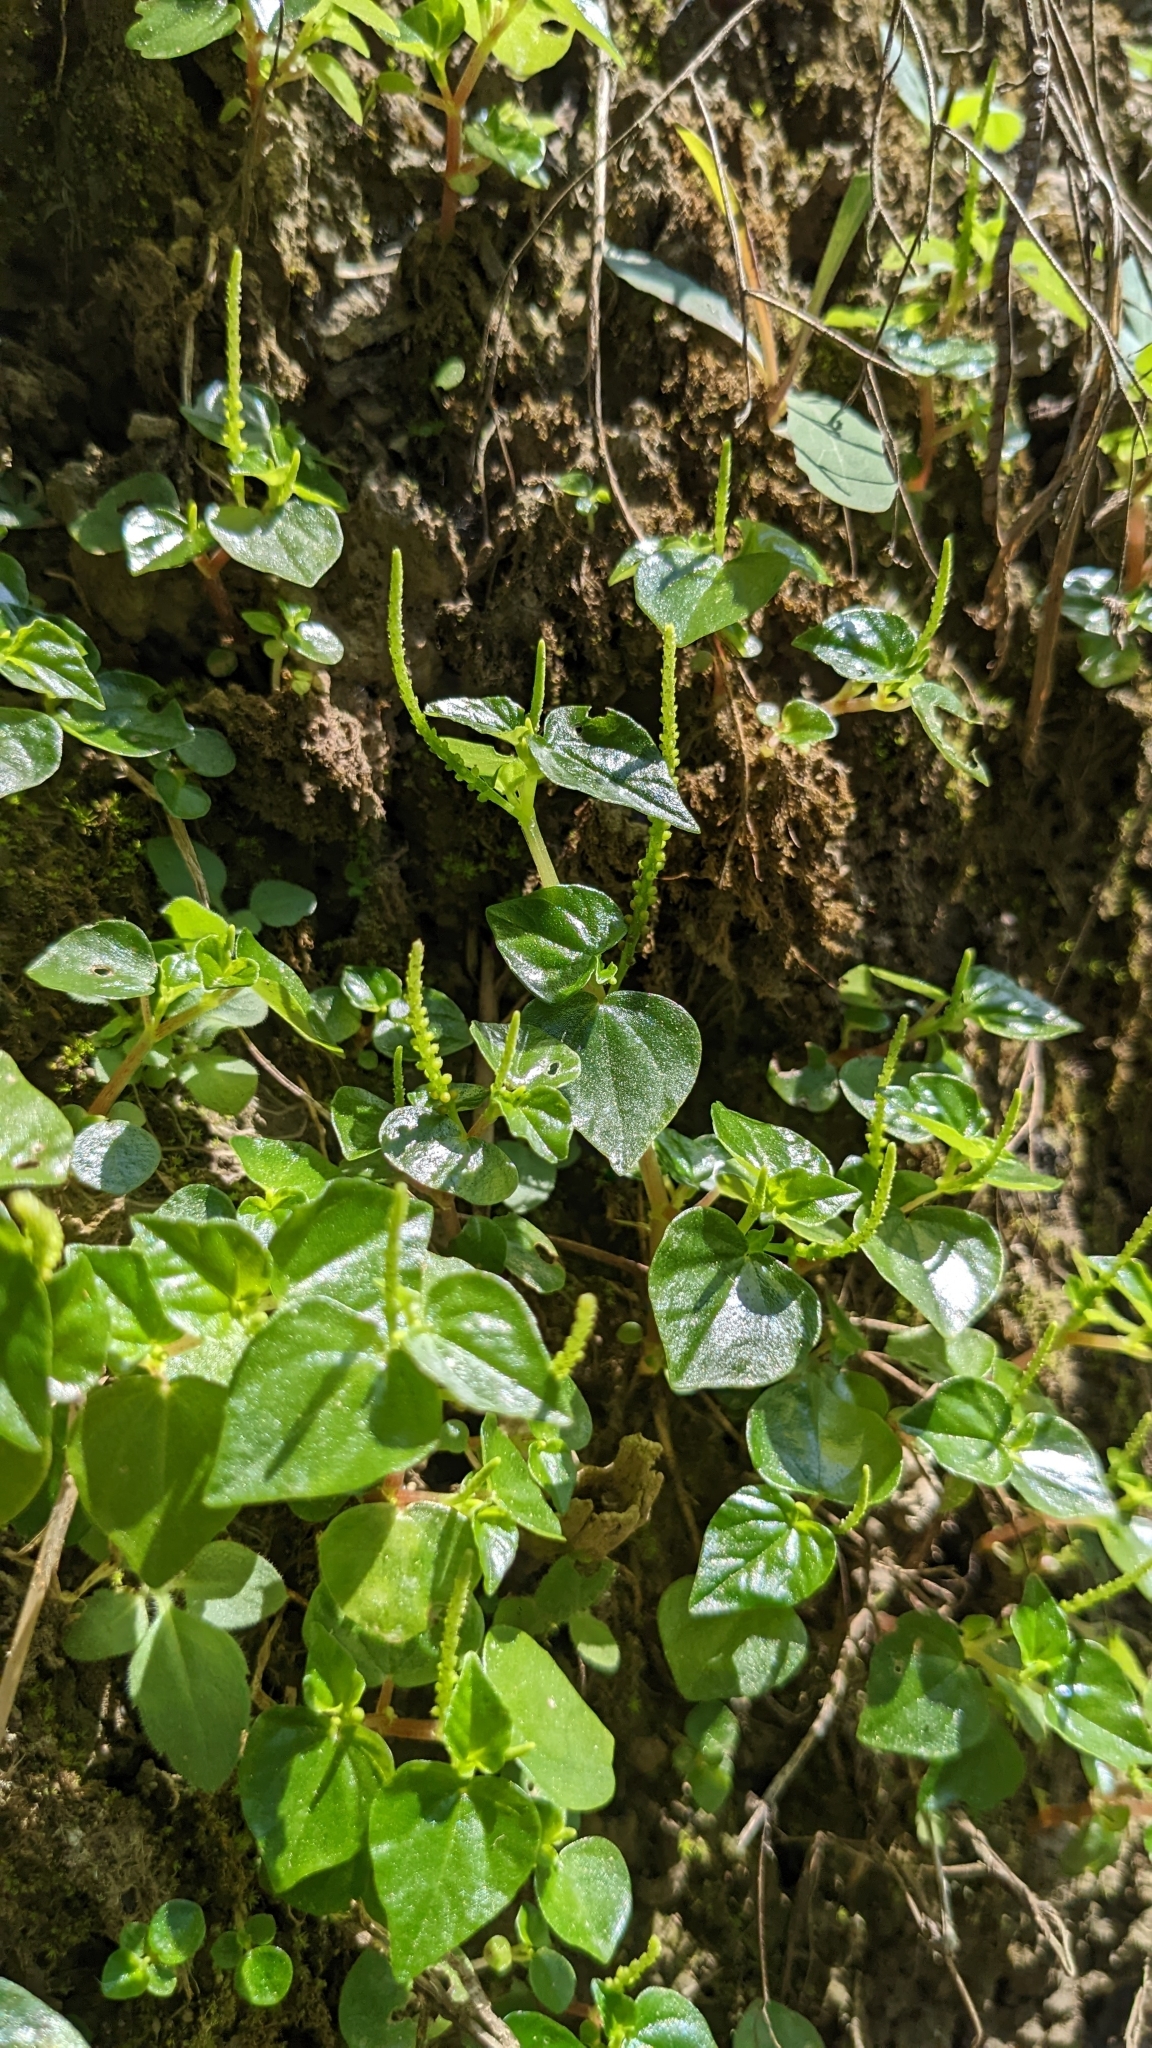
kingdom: Plantae
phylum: Tracheophyta
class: Magnoliopsida
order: Piperales
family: Piperaceae
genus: Peperomia
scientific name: Peperomia pellucida
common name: Man to man
